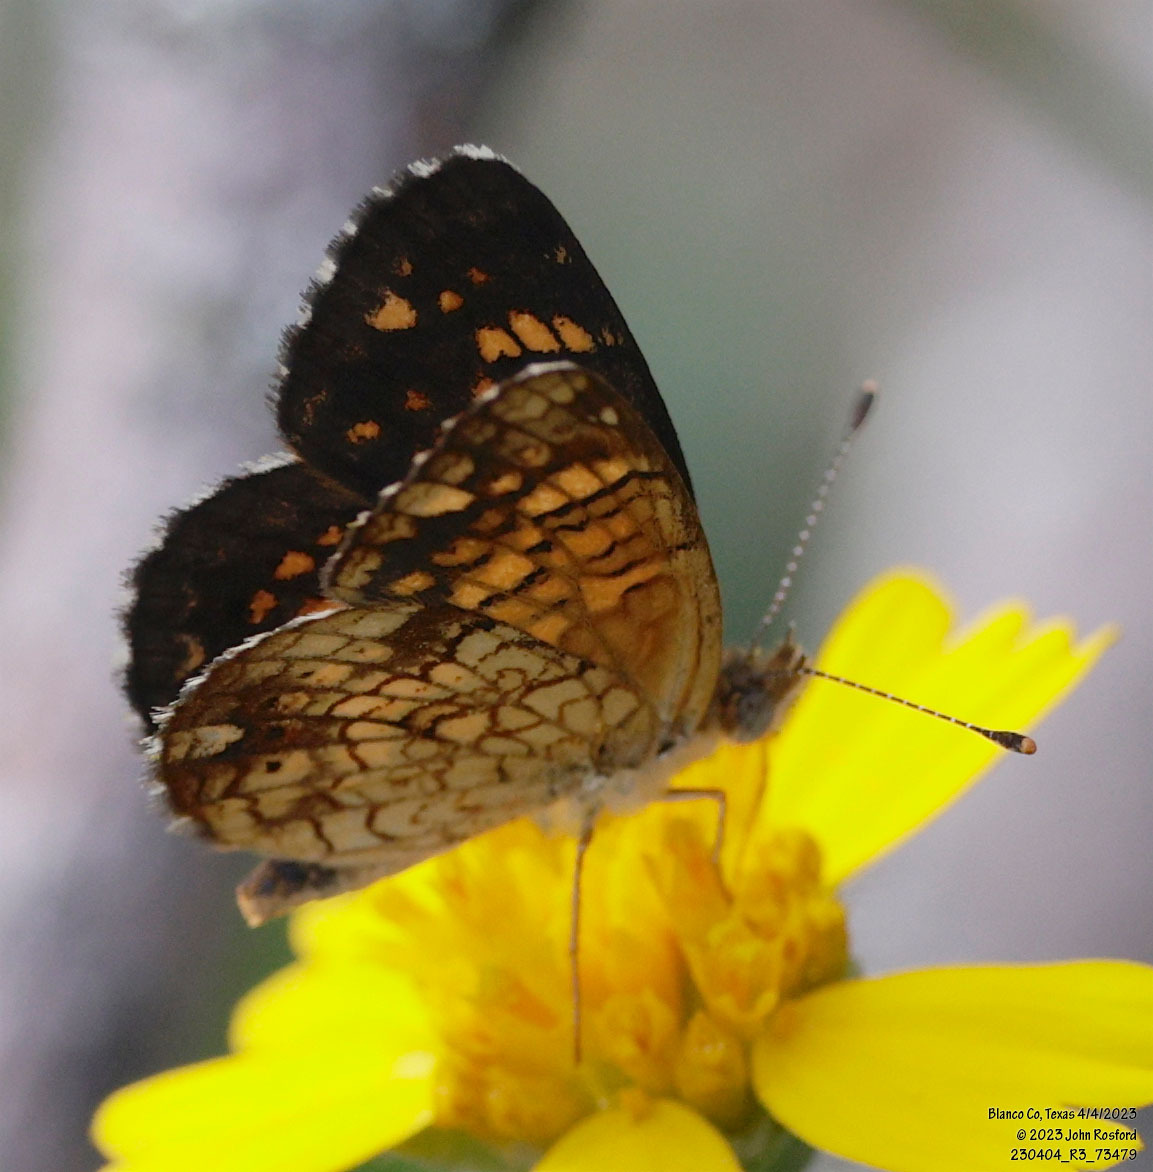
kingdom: Animalia
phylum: Arthropoda
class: Insecta
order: Lepidoptera
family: Nymphalidae
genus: Phyciodes
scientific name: Phyciodes vesta
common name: Vesta crescent
